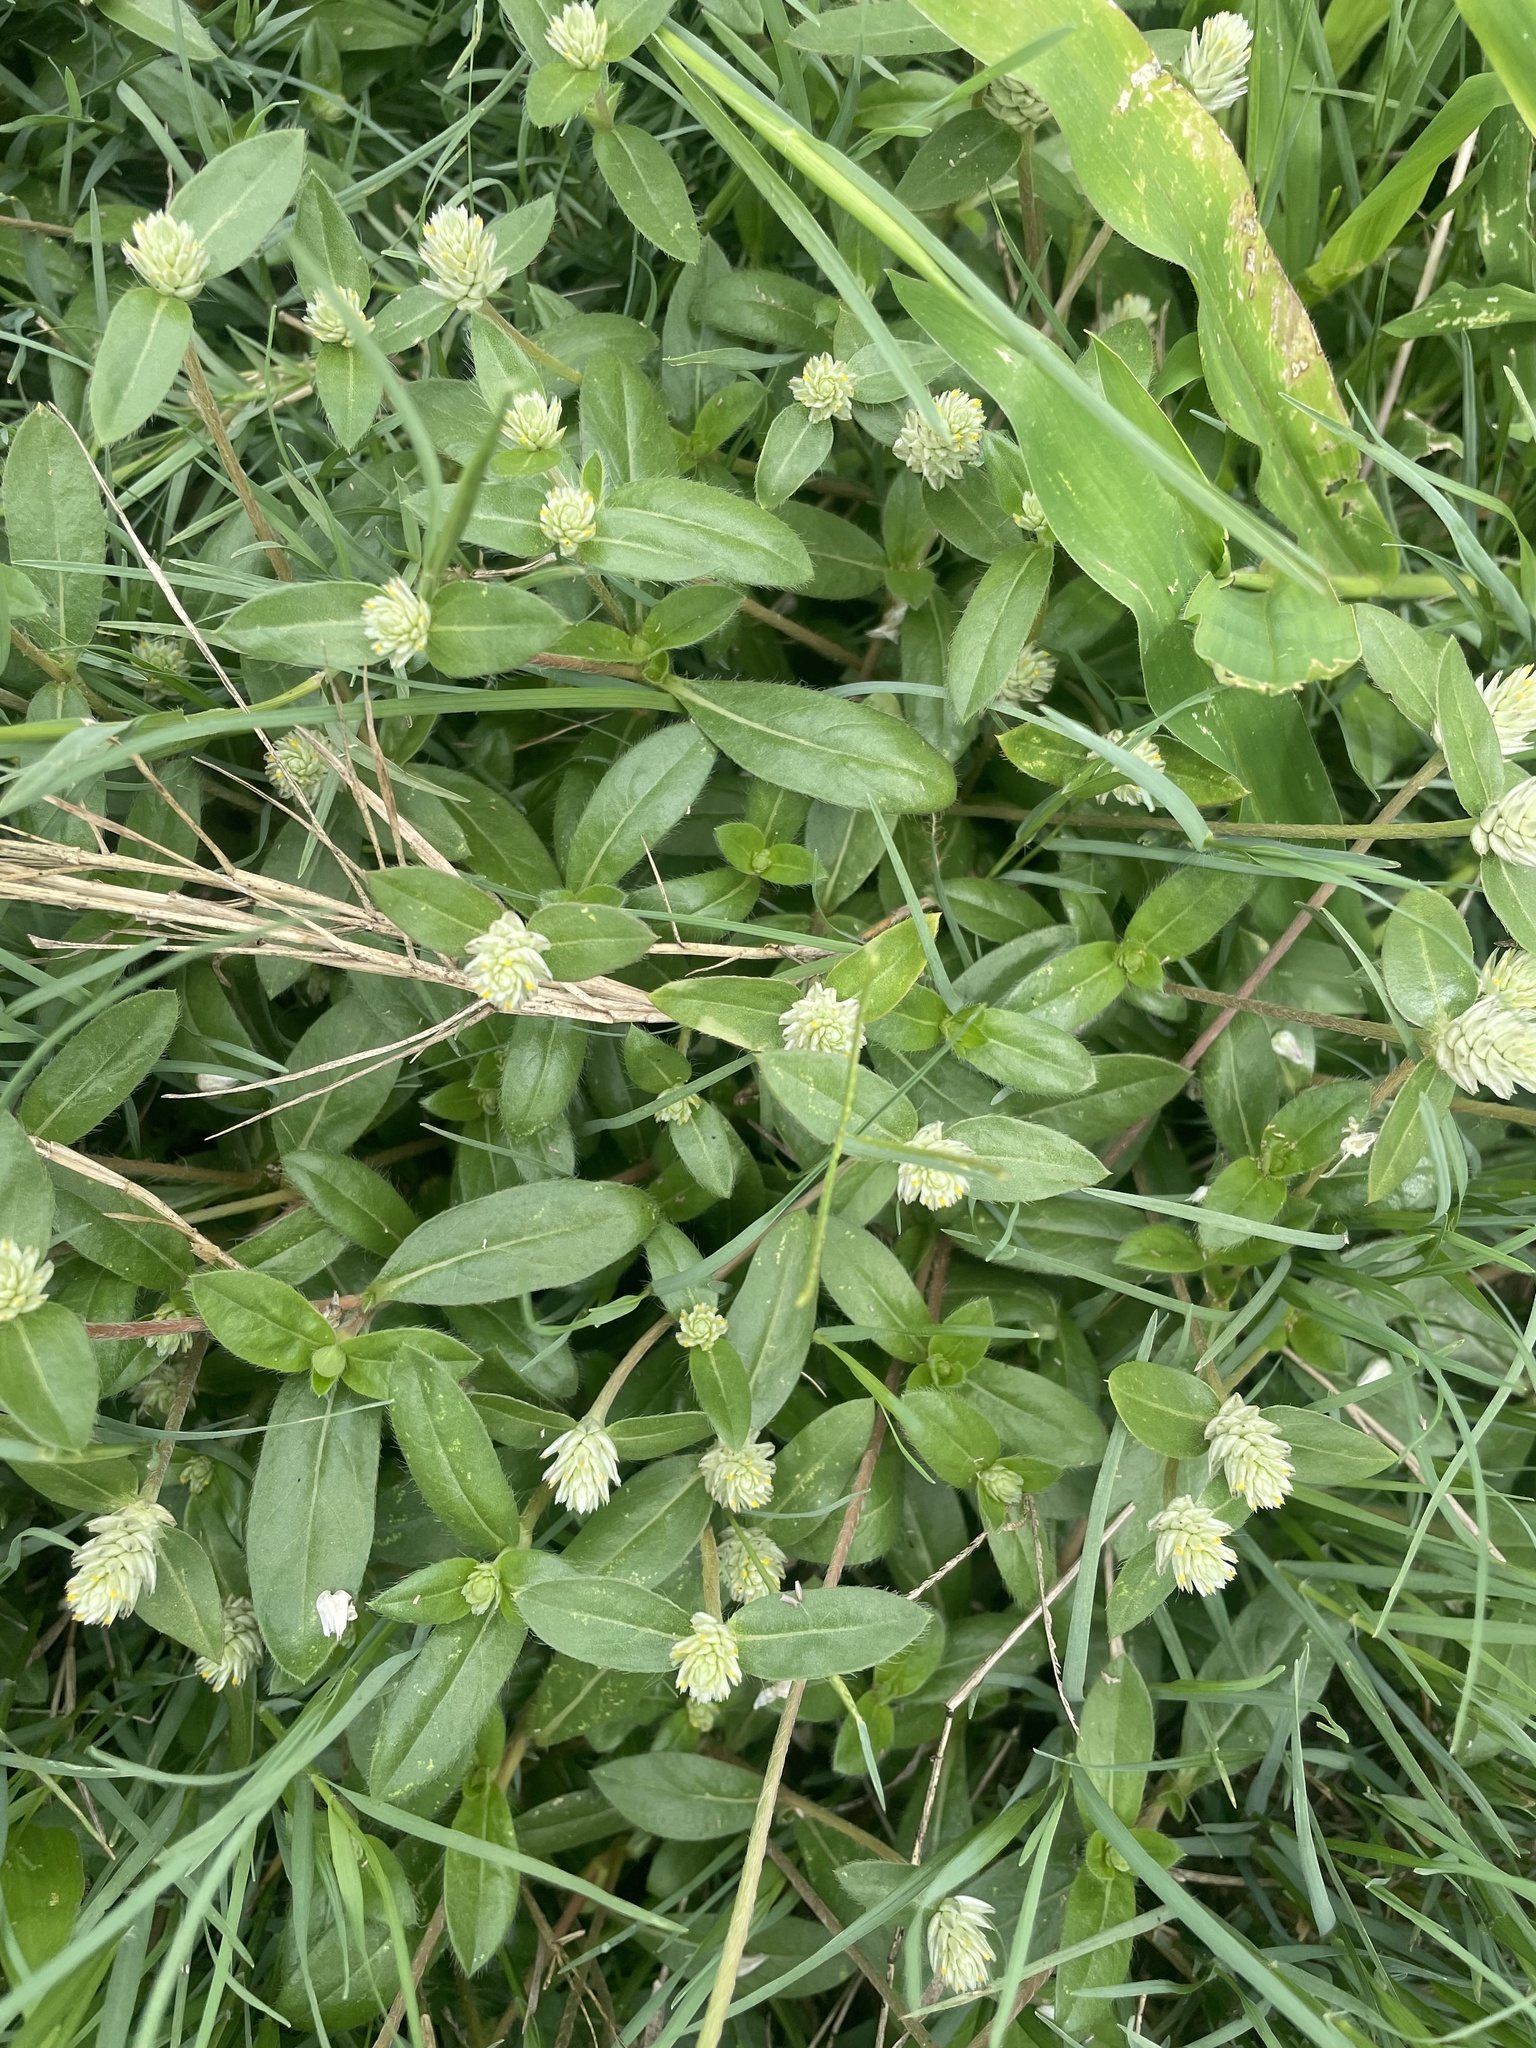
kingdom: Plantae
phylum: Tracheophyta
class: Magnoliopsida
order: Caryophyllales
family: Amaranthaceae
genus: Gomphrena
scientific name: Gomphrena celosioides
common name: Gomphrena-weed
